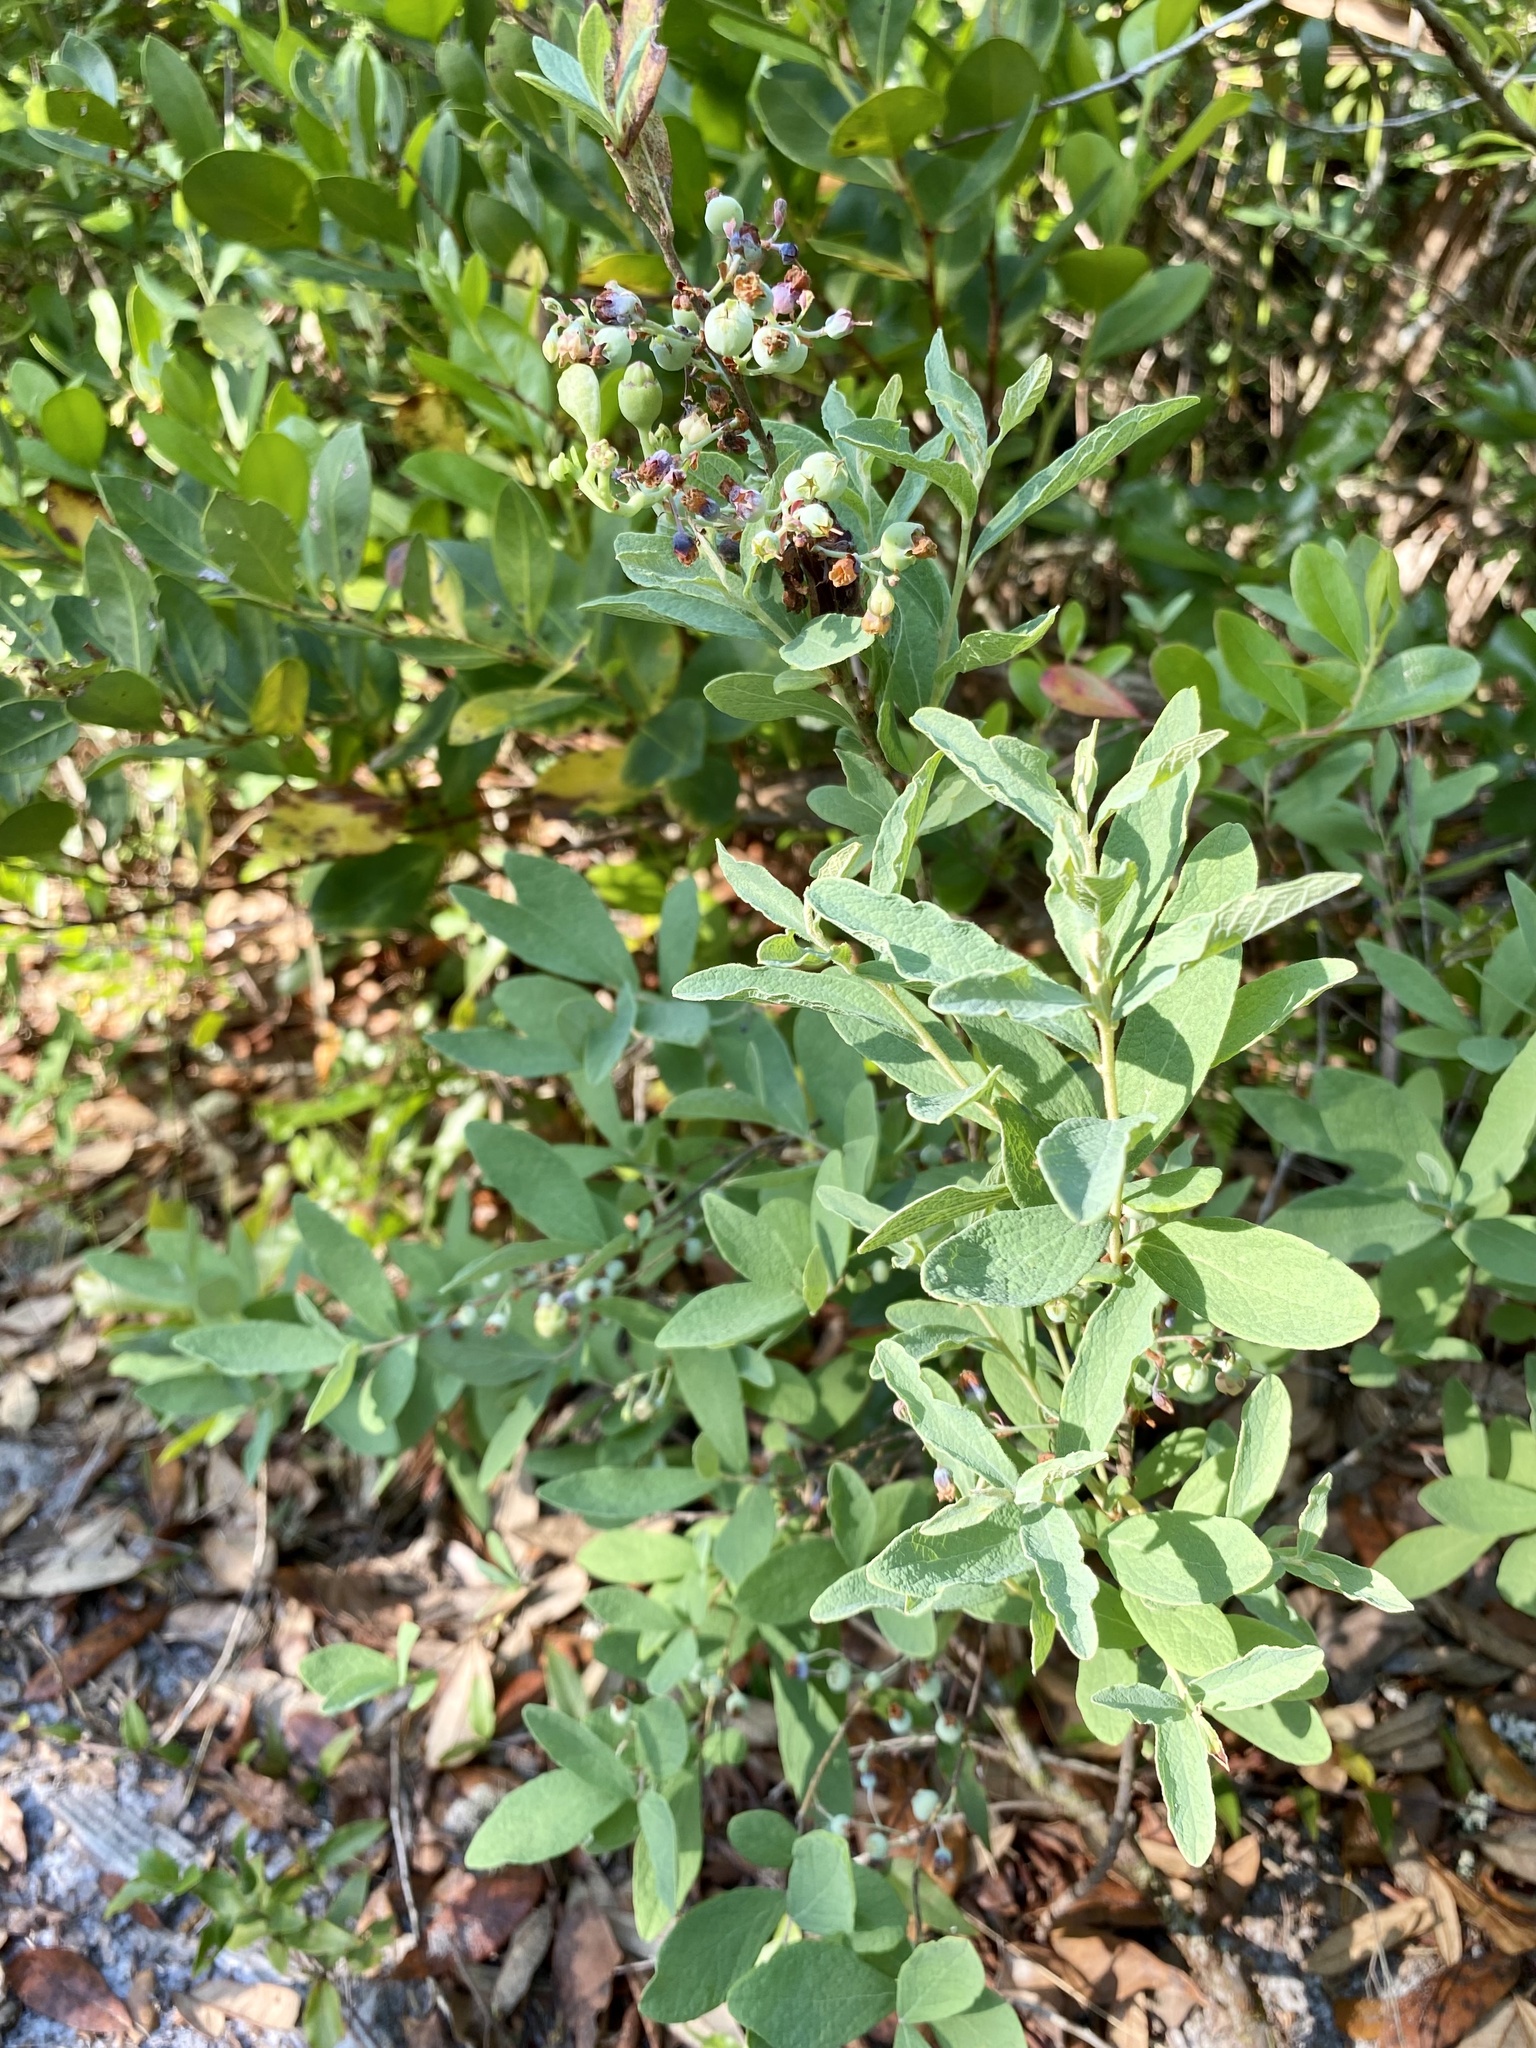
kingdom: Plantae
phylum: Tracheophyta
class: Magnoliopsida
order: Ericales
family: Ericaceae
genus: Gaylussacia
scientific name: Gaylussacia tomentosa
